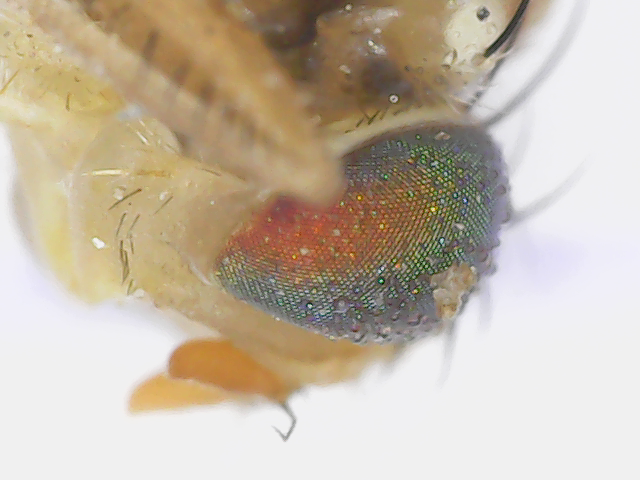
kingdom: Animalia
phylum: Arthropoda
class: Insecta
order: Diptera
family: Tephritidae
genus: Rhagoletis
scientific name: Rhagoletis completa
